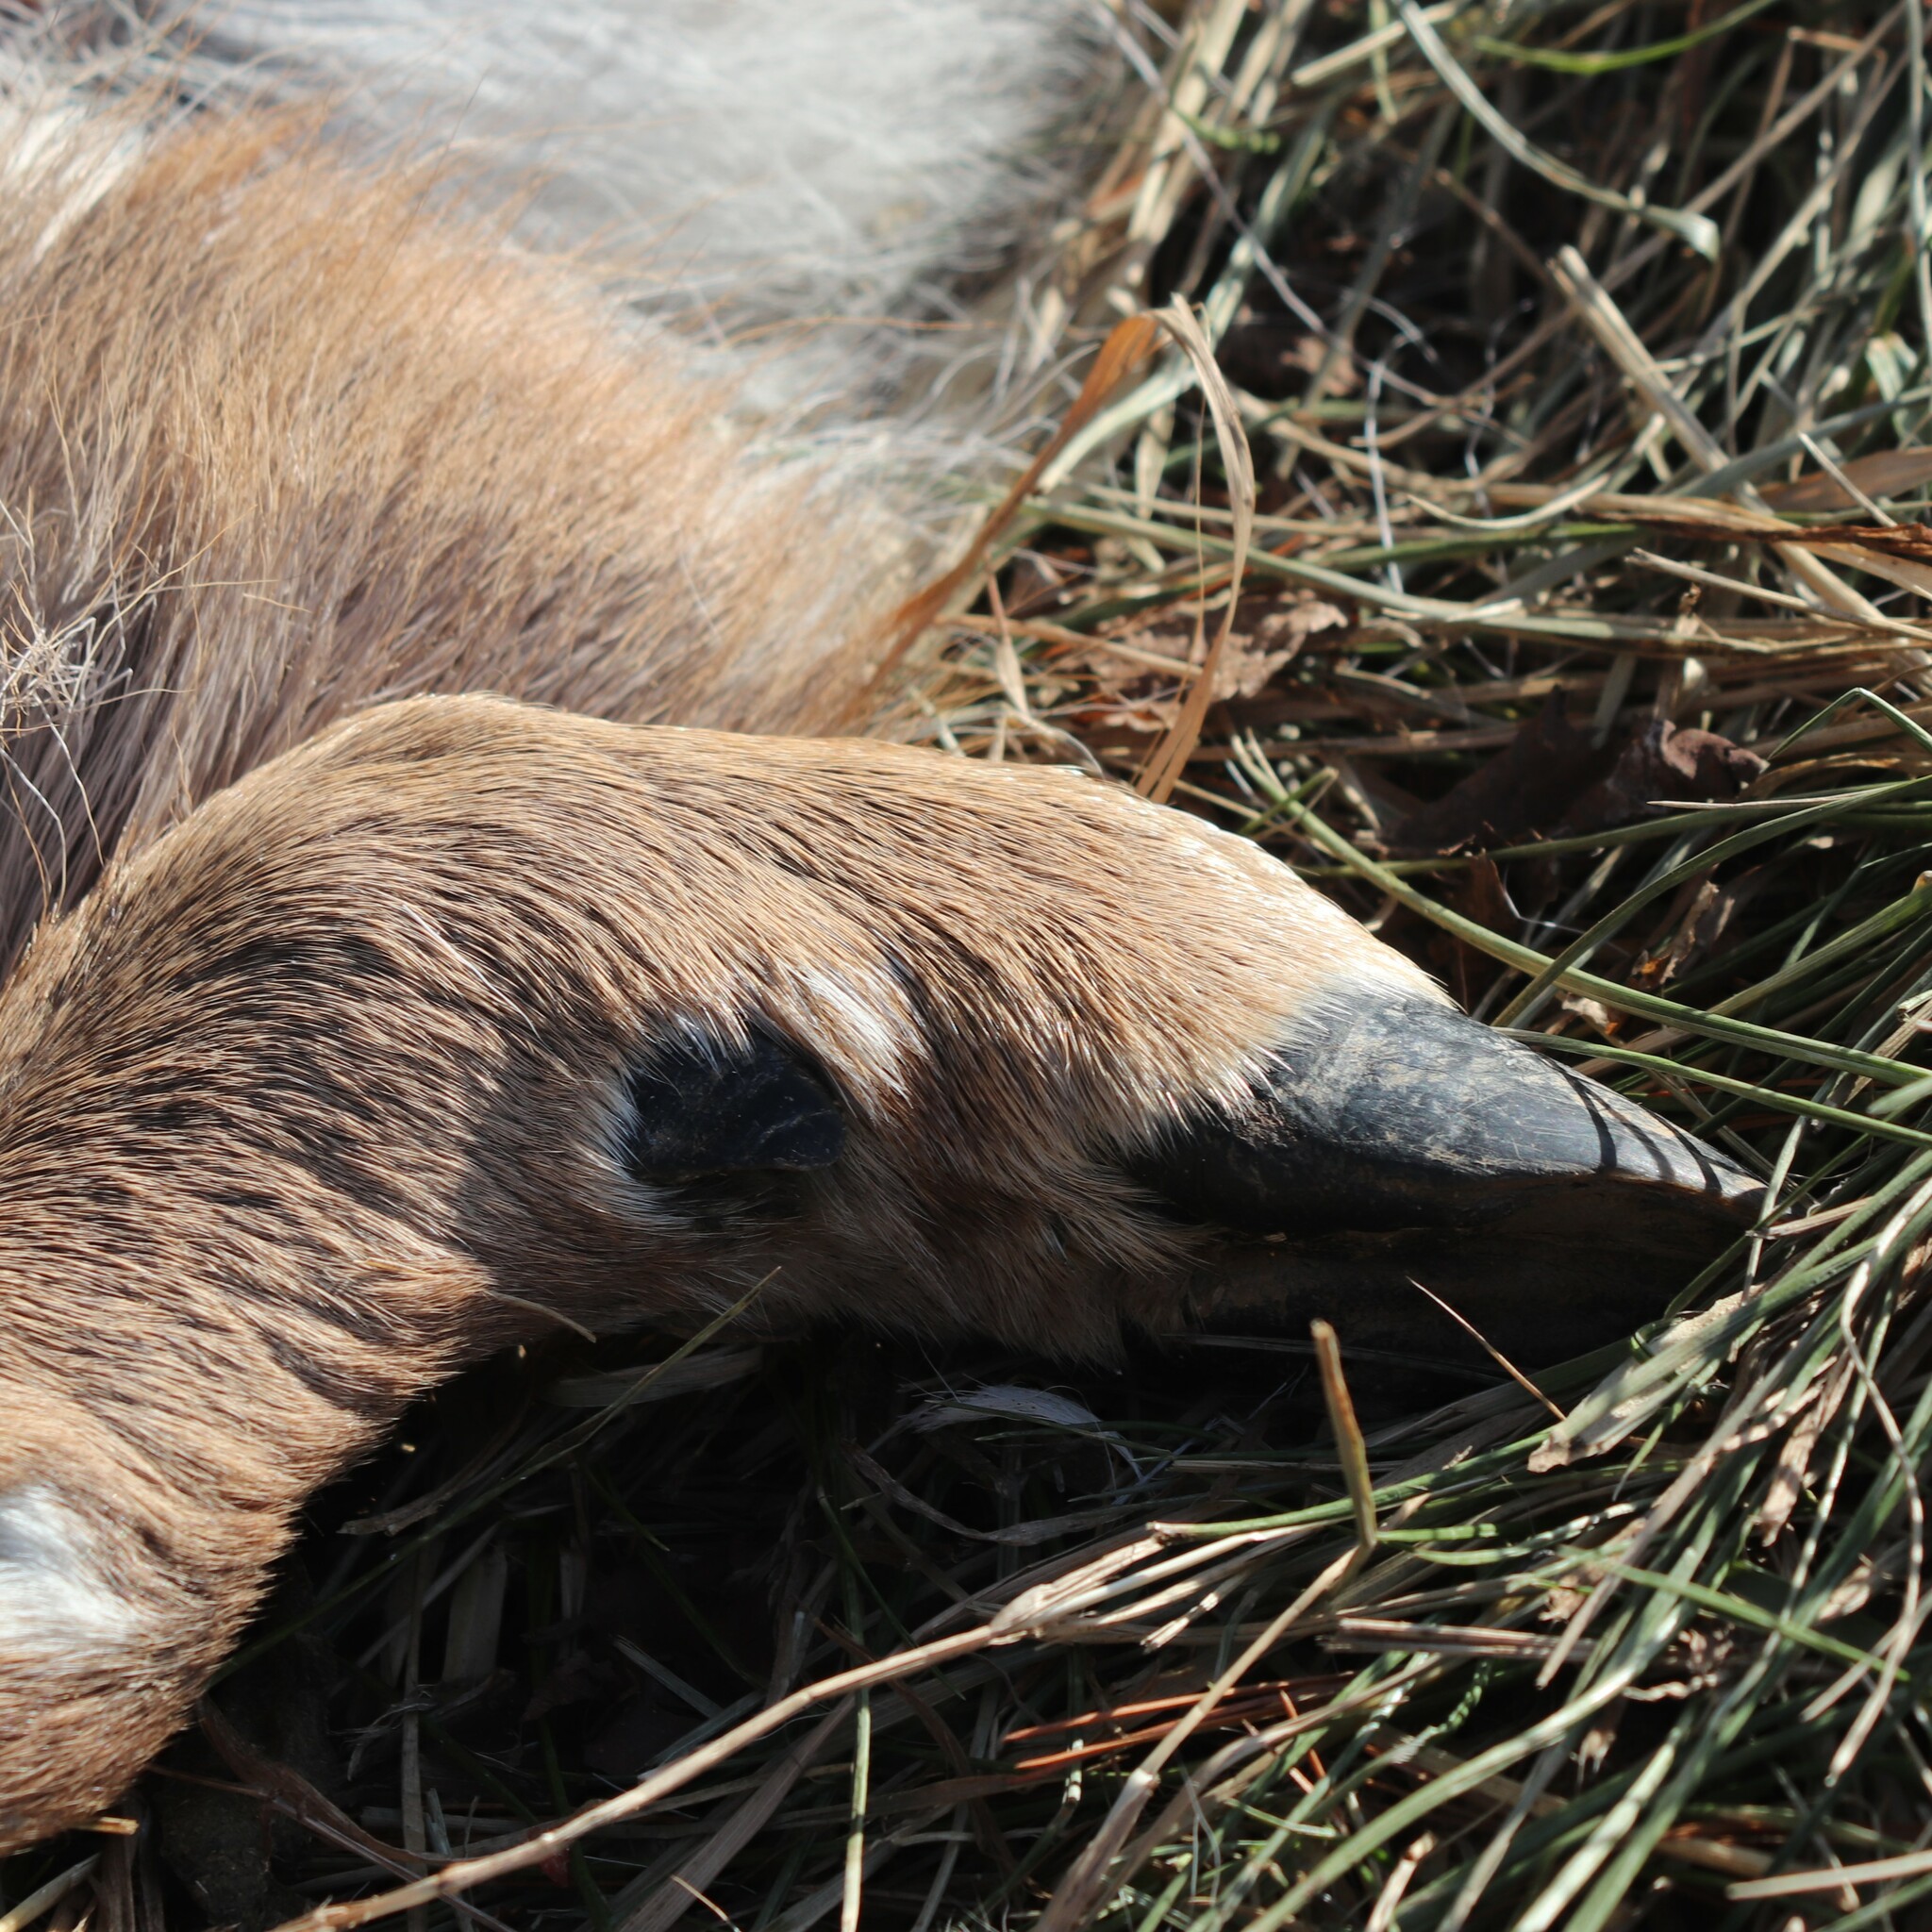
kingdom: Animalia
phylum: Chordata
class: Mammalia
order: Artiodactyla
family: Cervidae
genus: Odocoileus
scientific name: Odocoileus virginianus
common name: White-tailed deer
